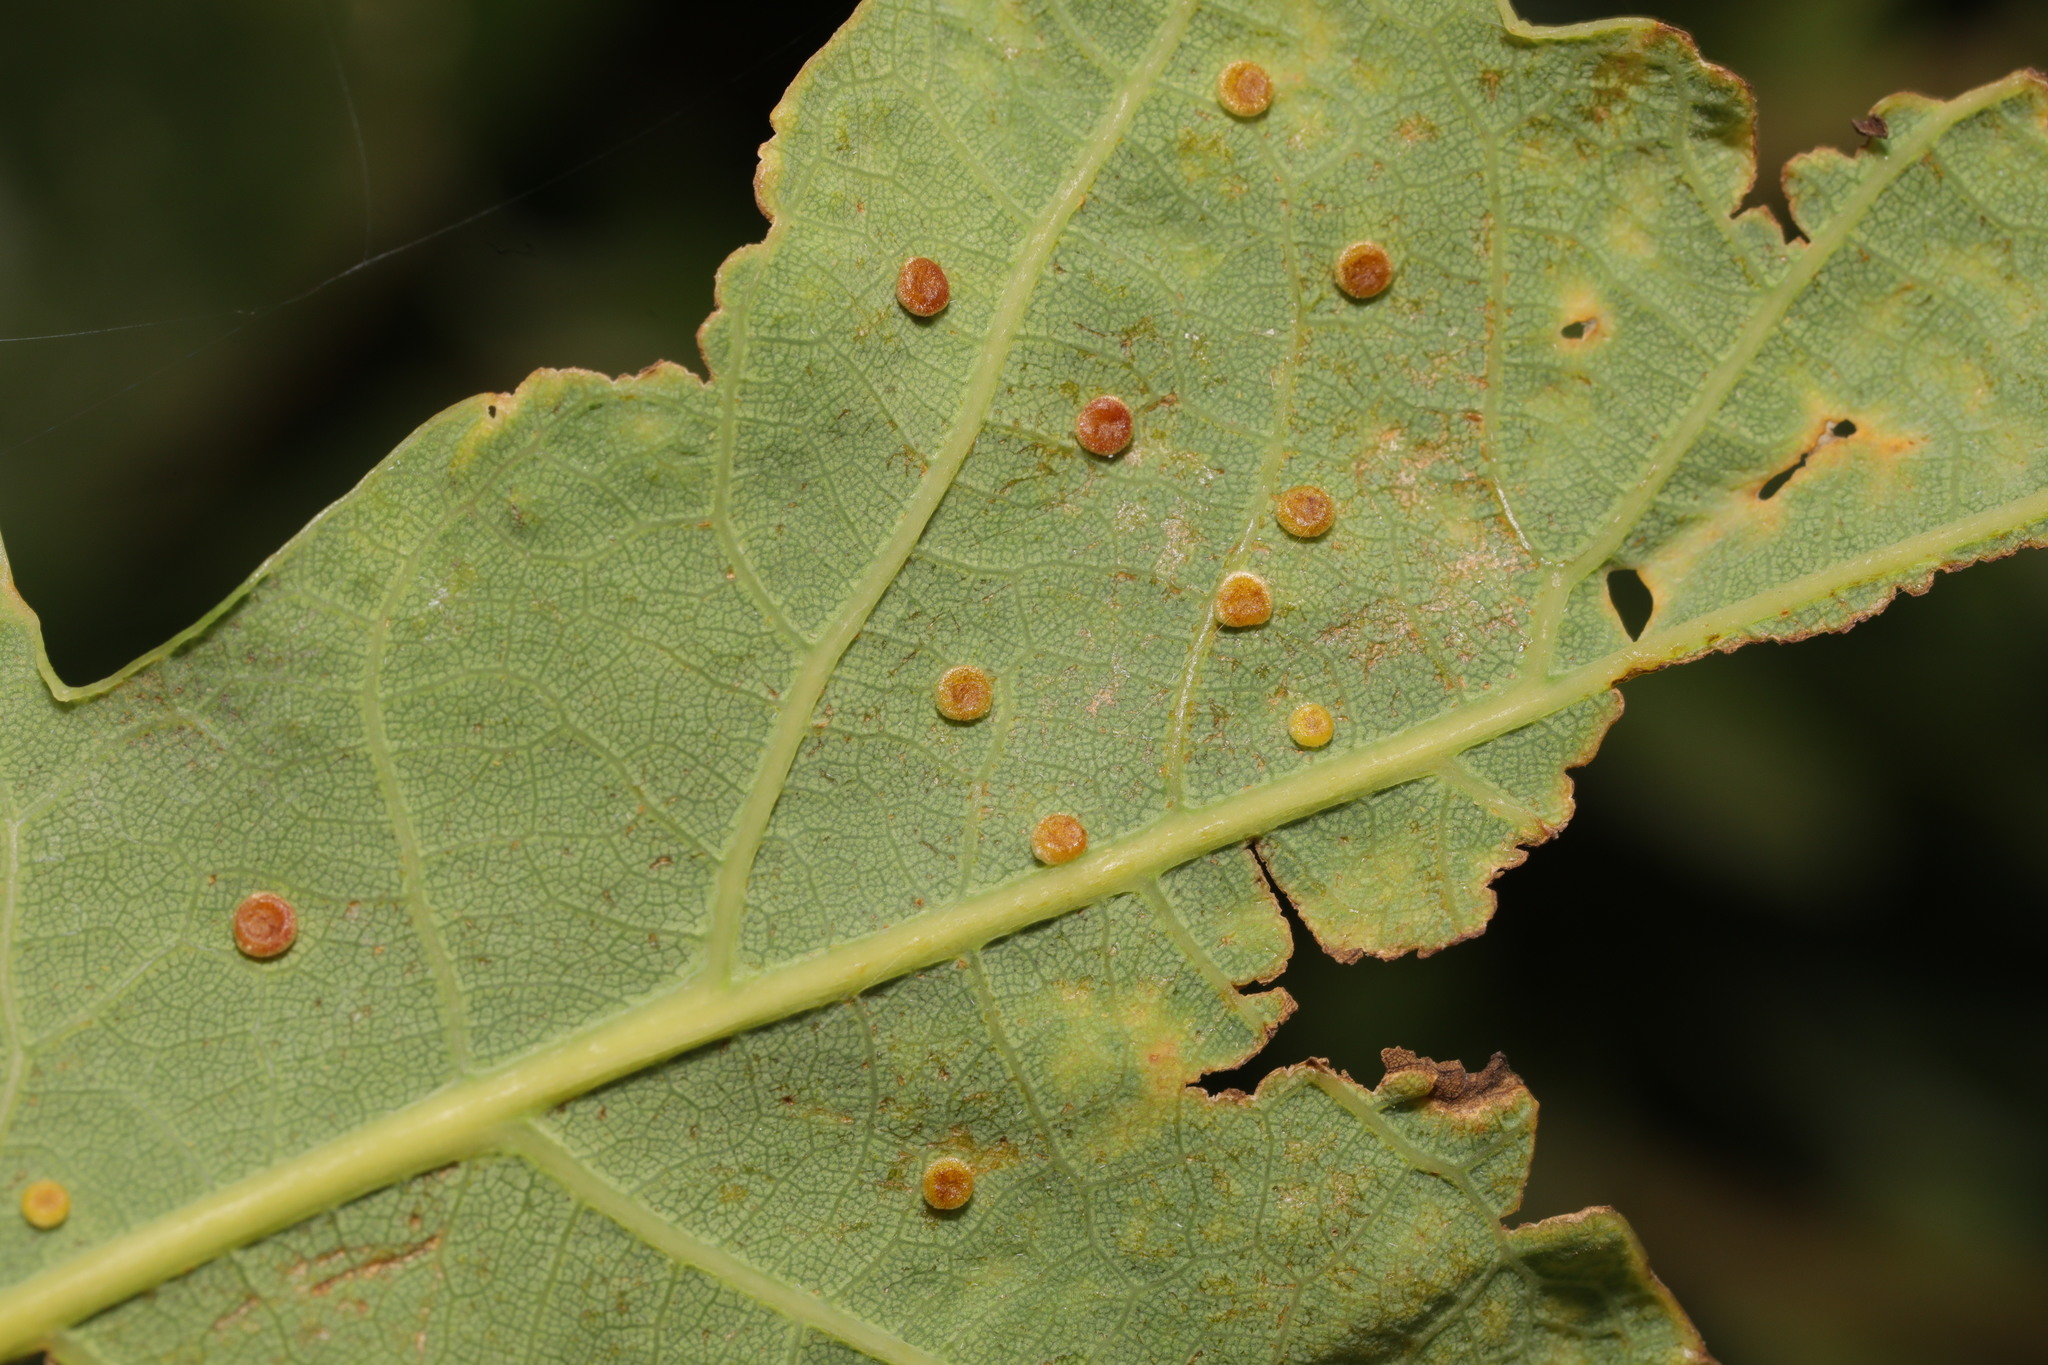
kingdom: Animalia
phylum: Arthropoda
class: Insecta
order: Hymenoptera
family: Cynipidae
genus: Neuroterus
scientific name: Neuroterus numismalis
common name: Silk-button spangle gall
